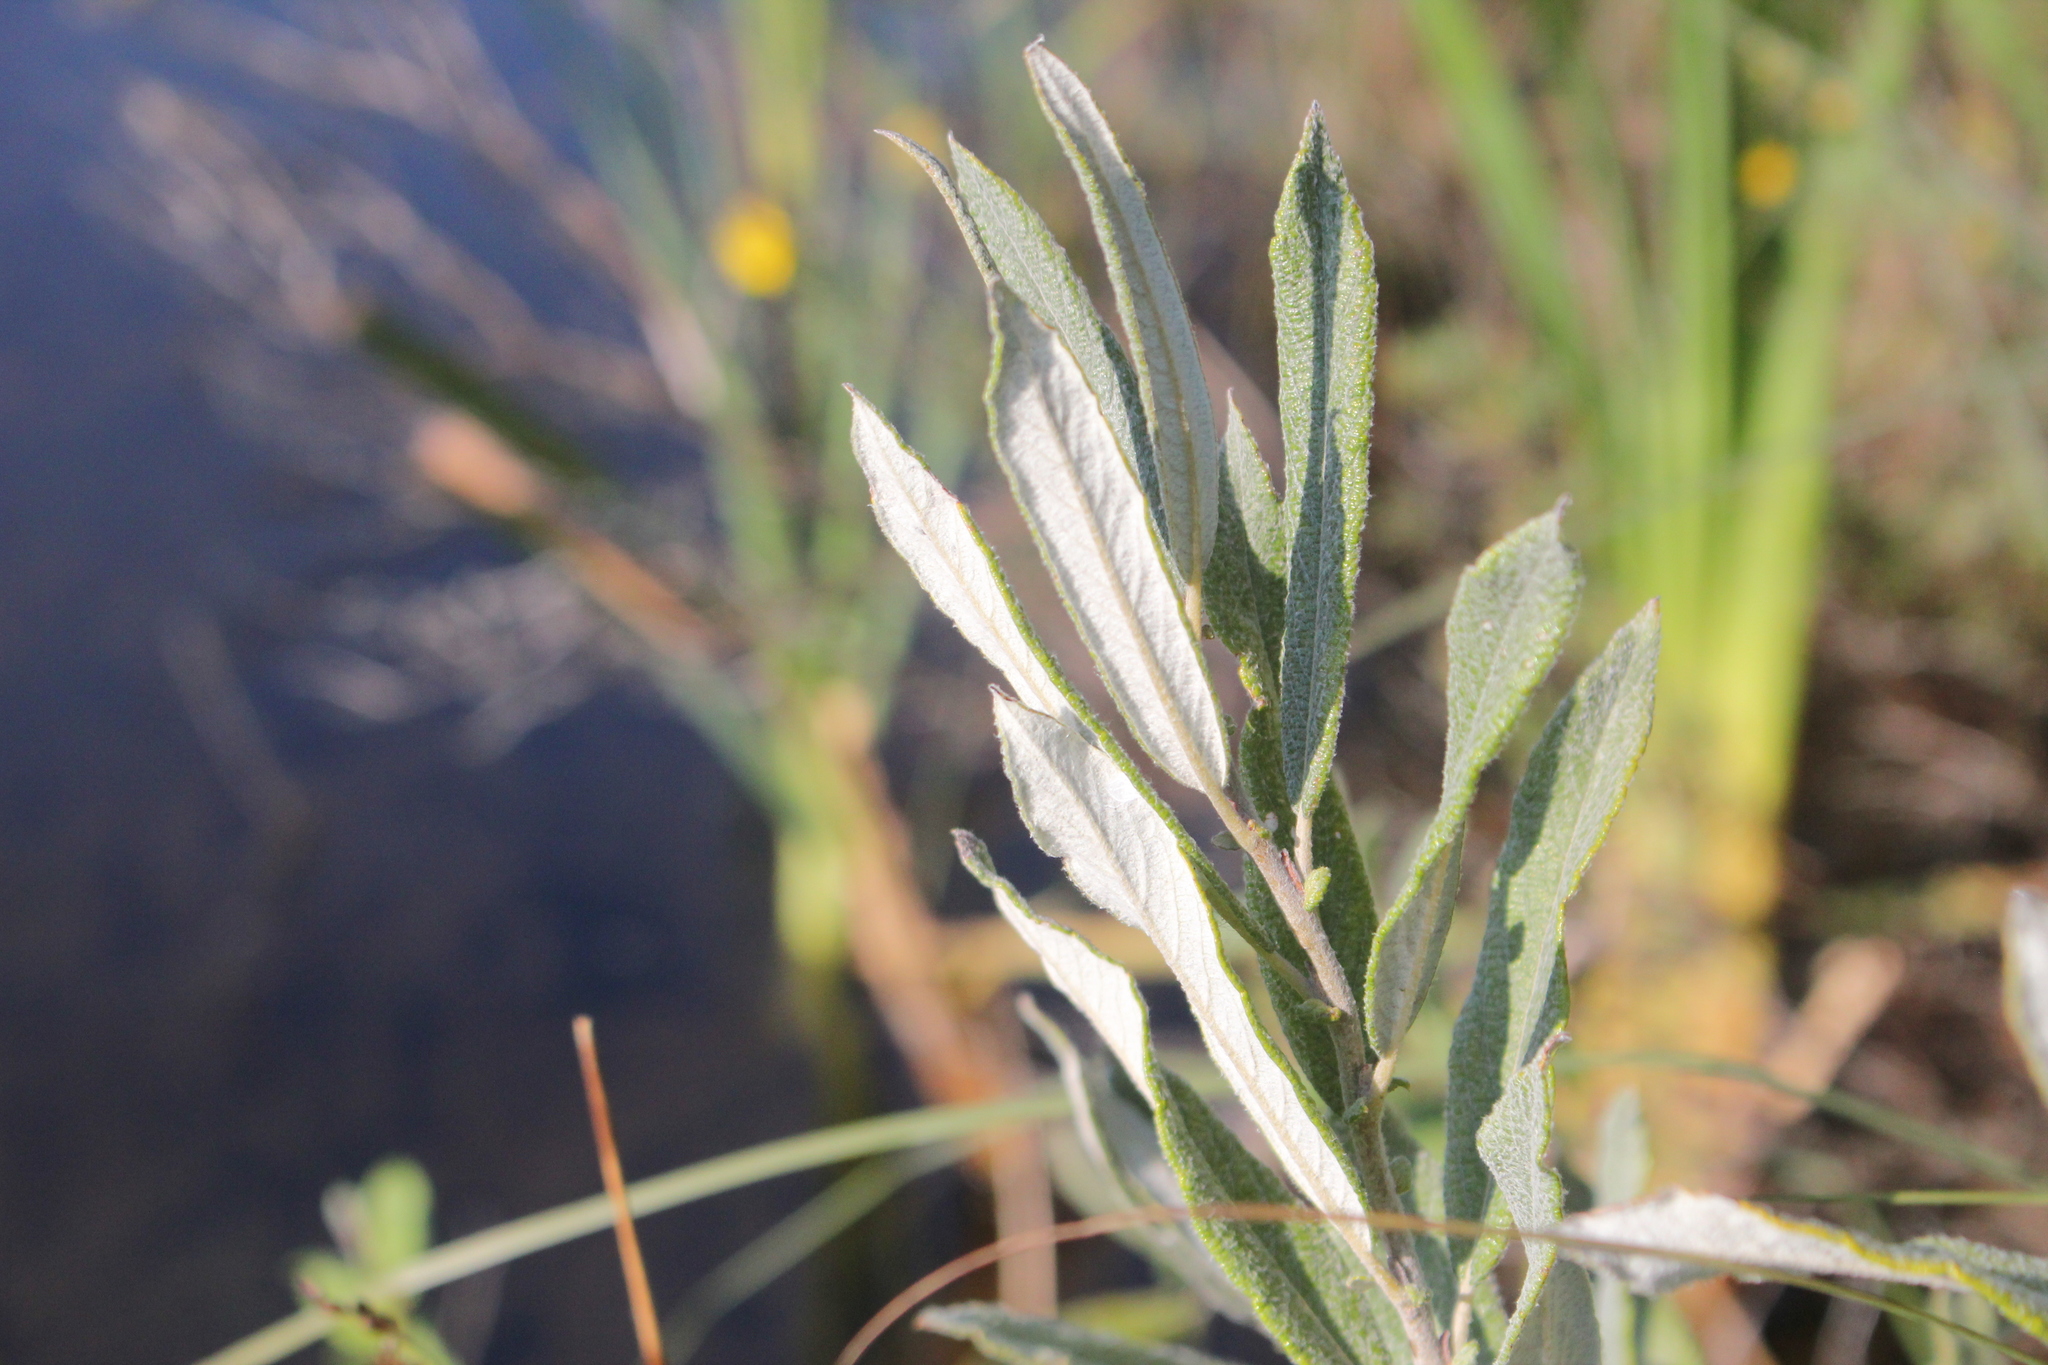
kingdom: Plantae
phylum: Tracheophyta
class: Magnoliopsida
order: Malpighiales
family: Salicaceae
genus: Salix
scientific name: Salix candida
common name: Hoary willow
